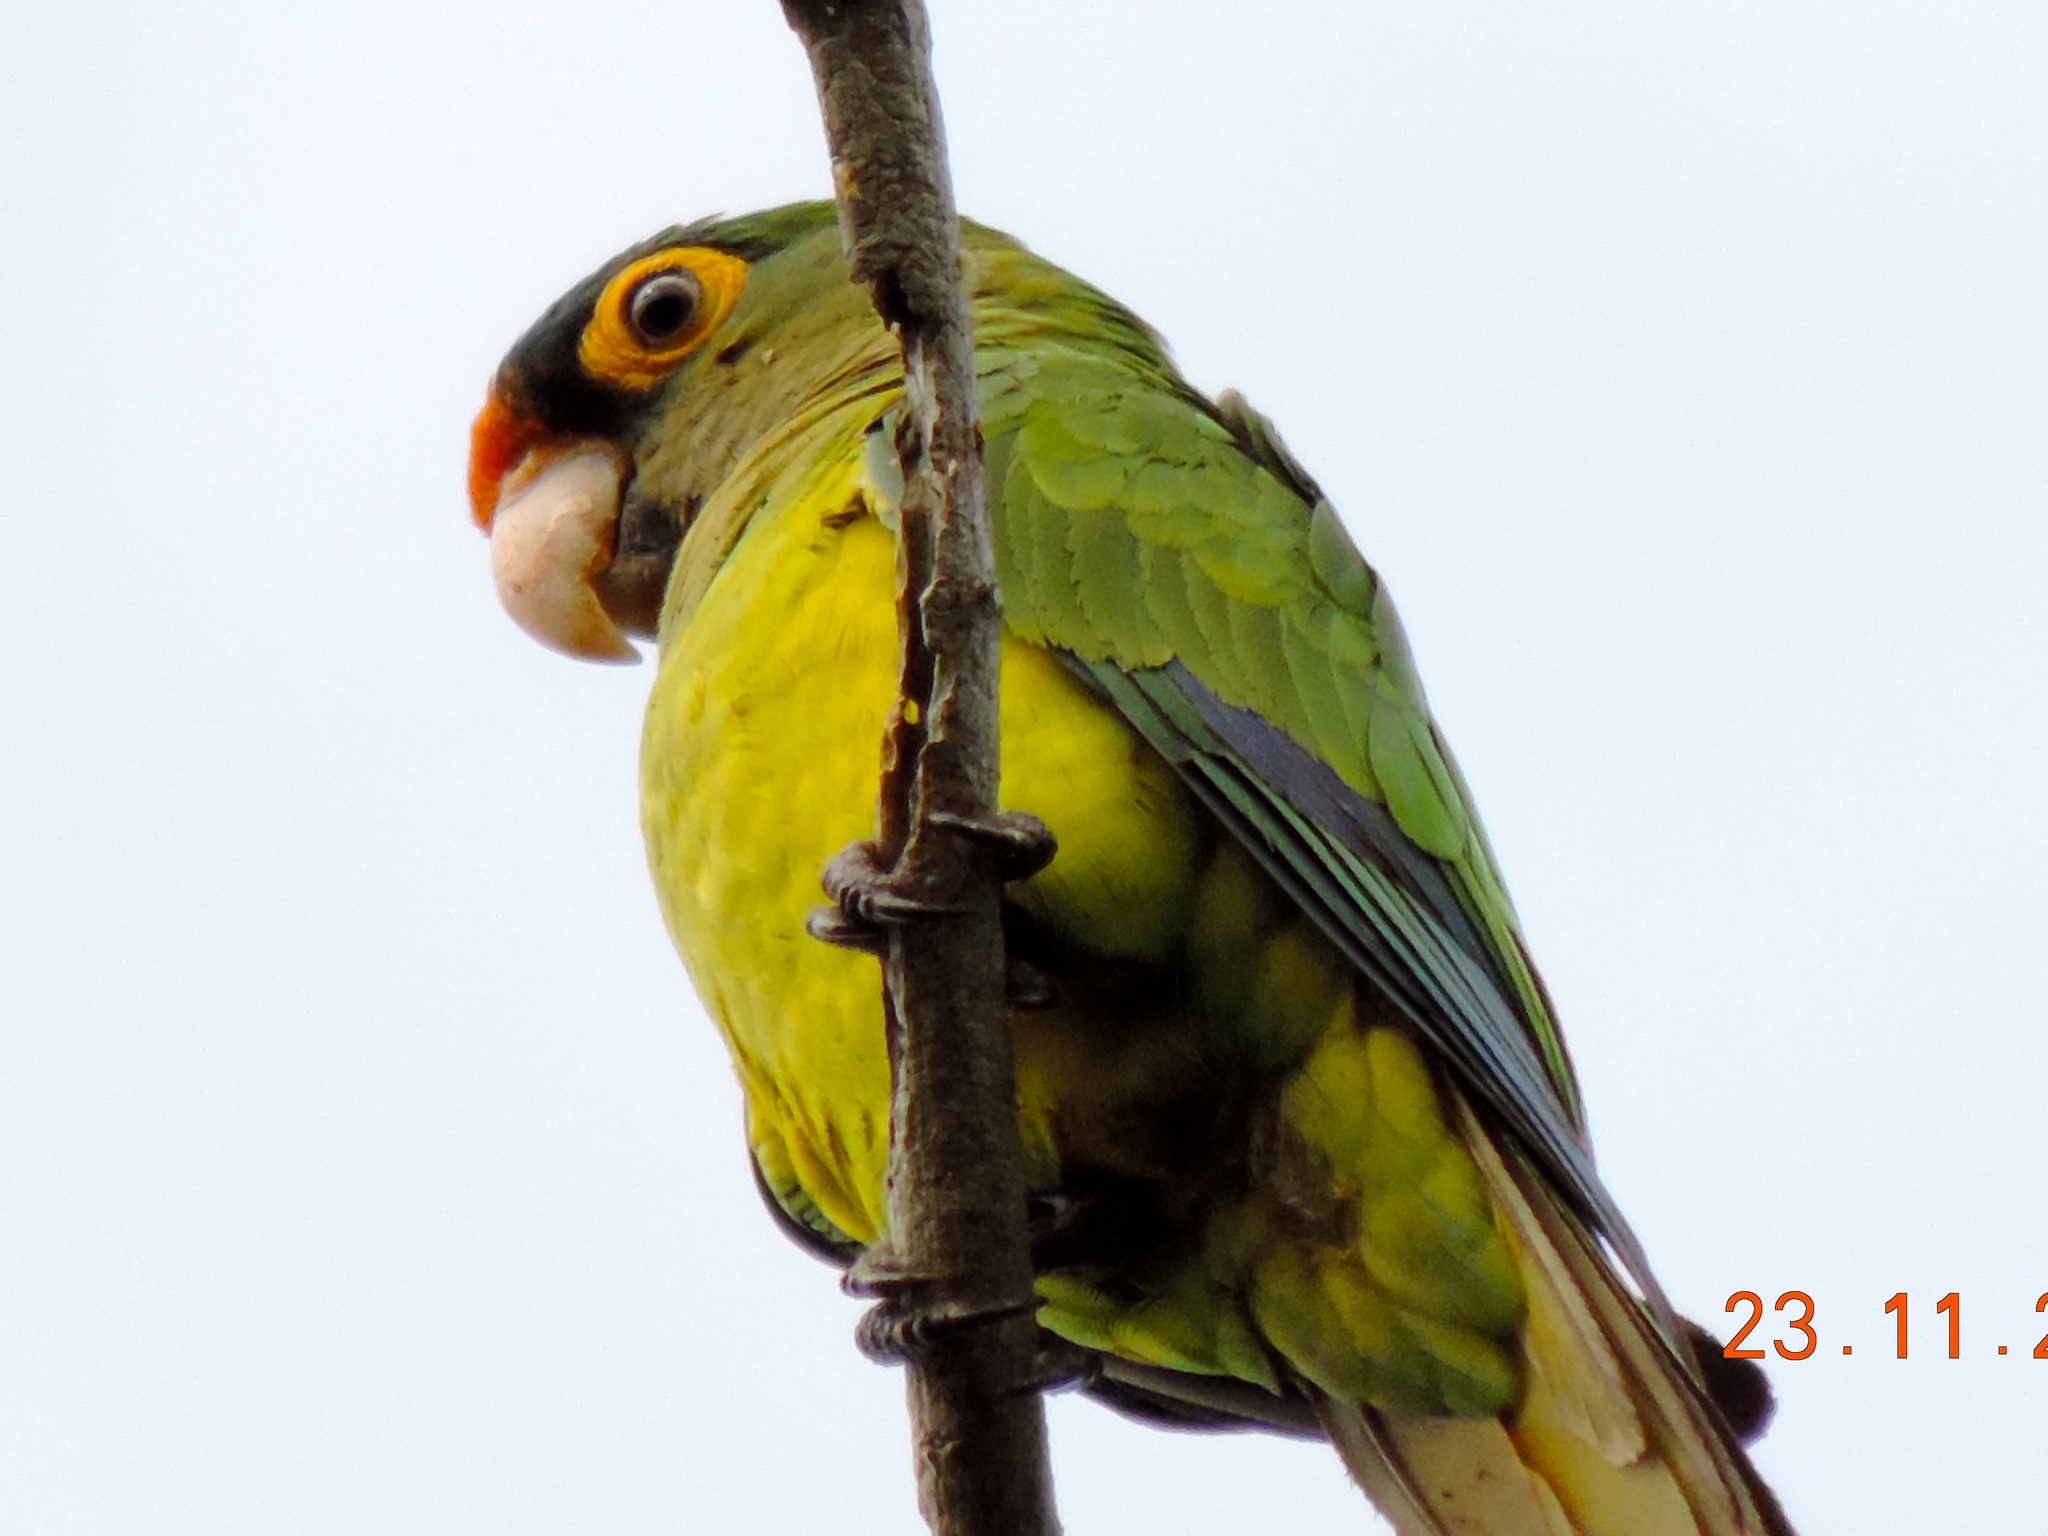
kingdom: Animalia
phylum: Chordata
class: Aves
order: Psittaciformes
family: Psittacidae
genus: Aratinga
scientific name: Aratinga canicularis
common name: Orange-fronted parakeet
